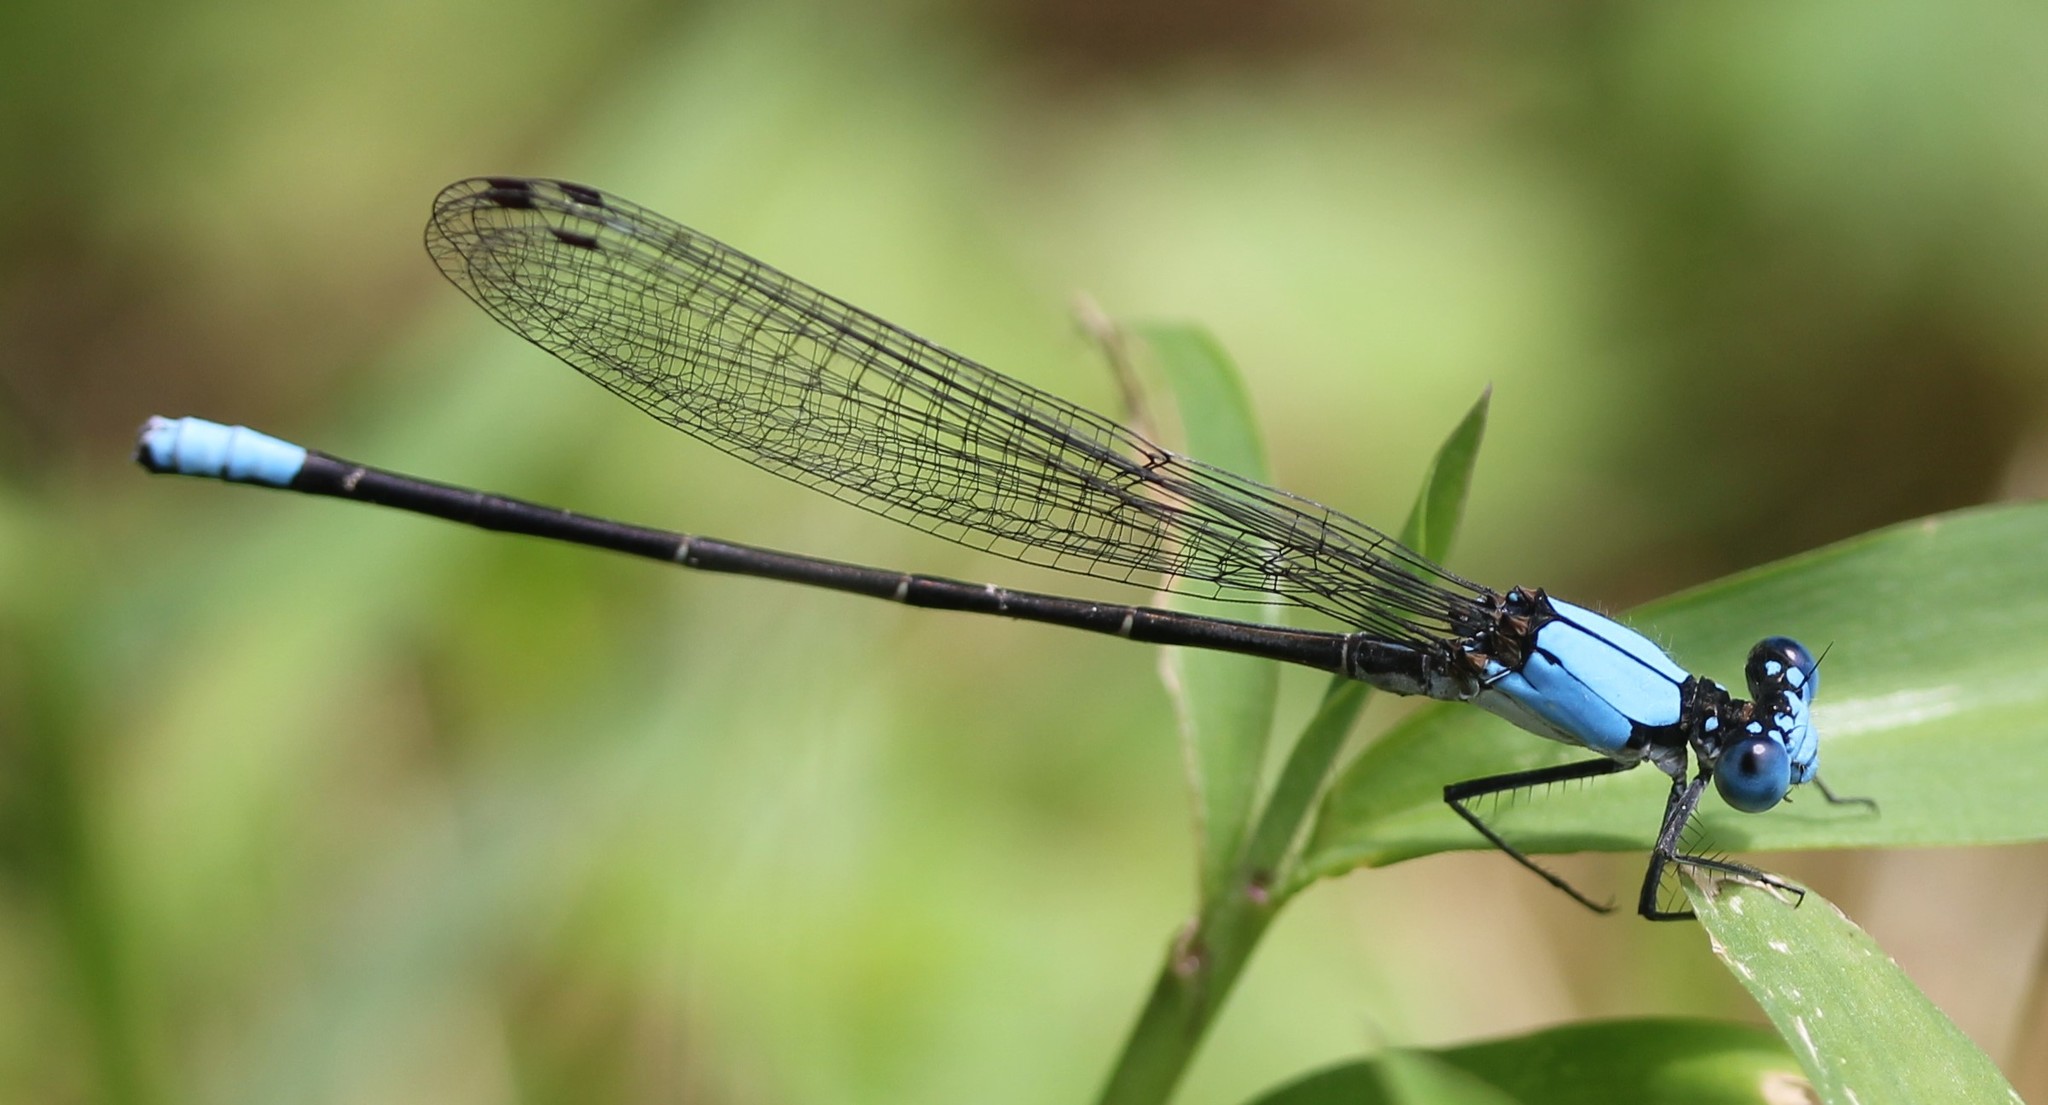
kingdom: Animalia
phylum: Arthropoda
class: Insecta
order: Odonata
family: Coenagrionidae
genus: Argia
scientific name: Argia apicalis
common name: Blue-fronted dancer
